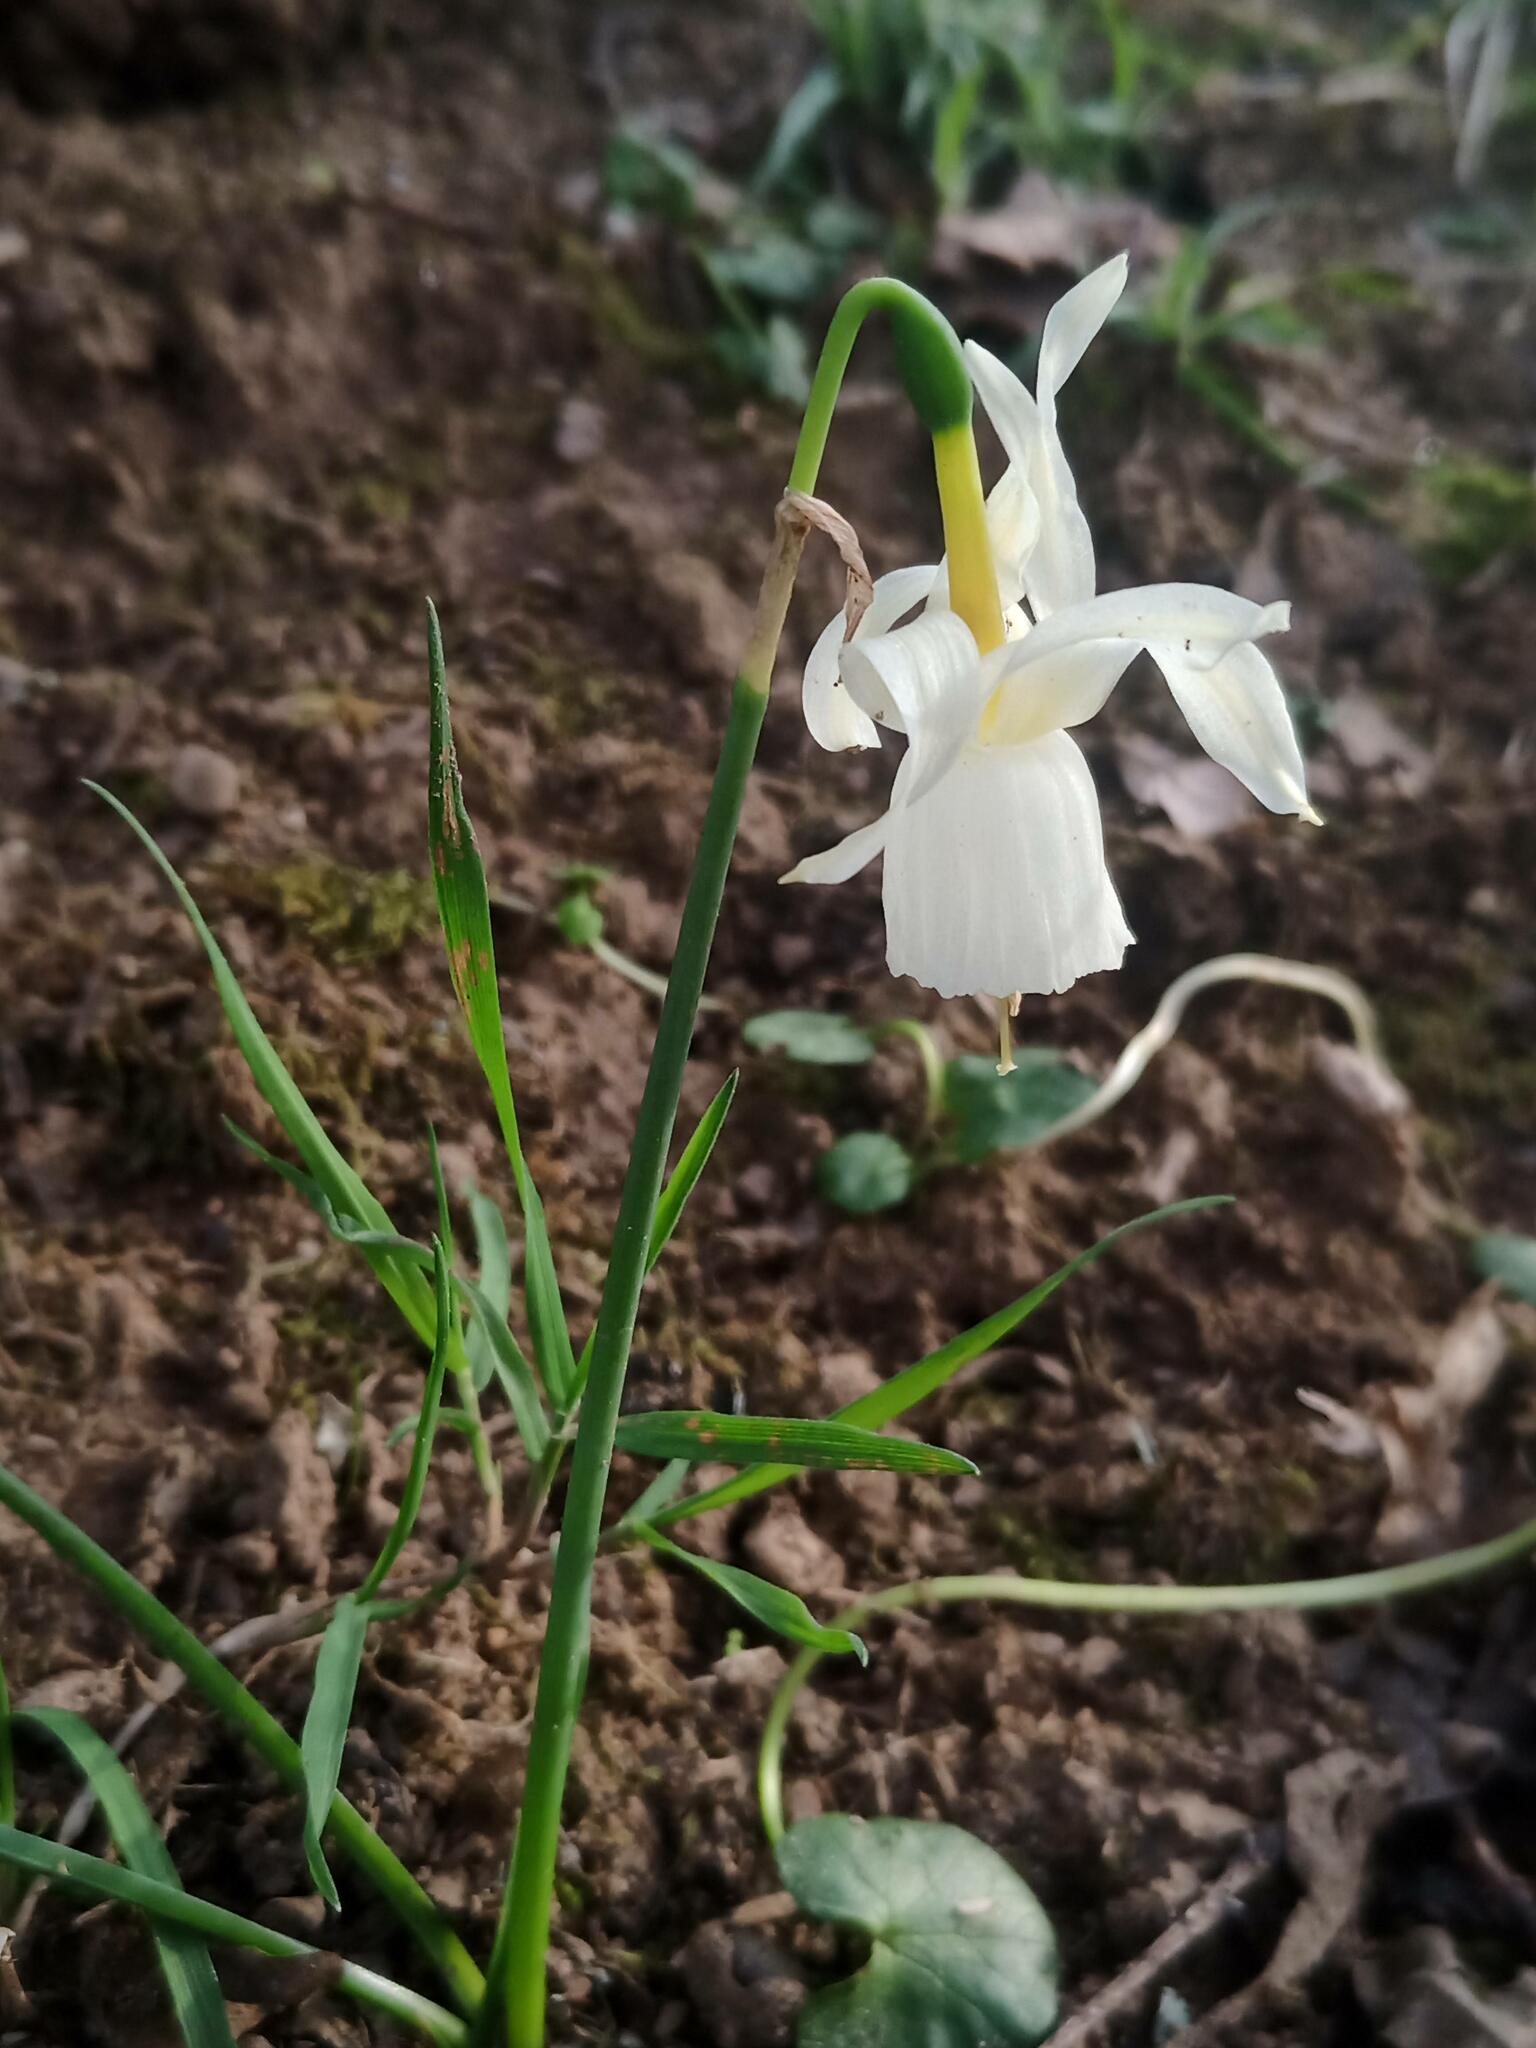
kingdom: Plantae
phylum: Tracheophyta
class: Liliopsida
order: Asparagales
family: Amaryllidaceae
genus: Narcissus
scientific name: Narcissus triandrus
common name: Angel's-tears
